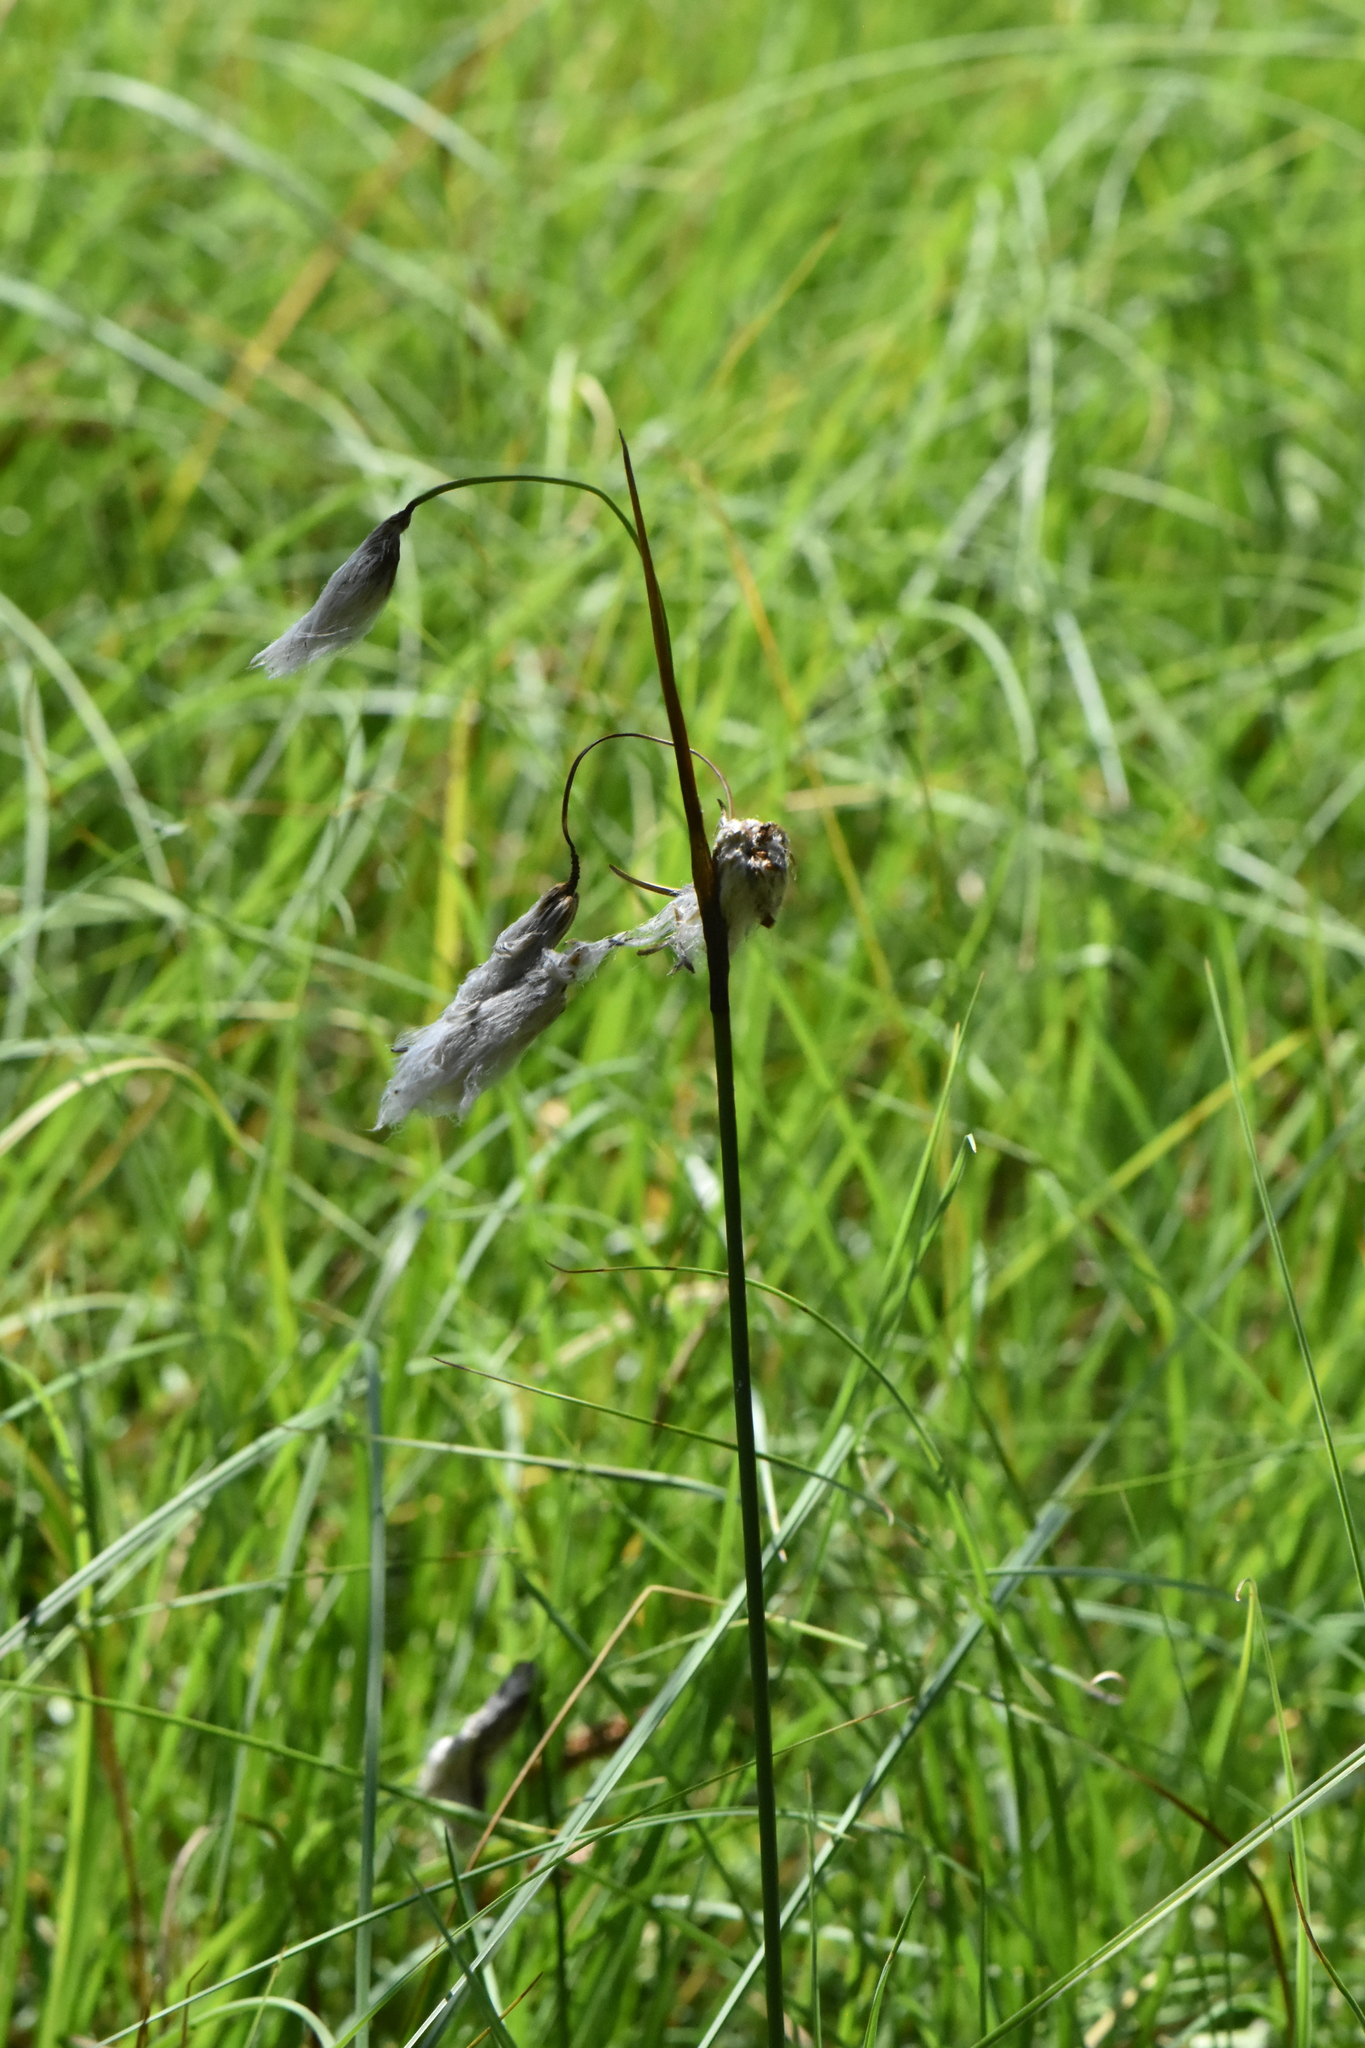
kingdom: Plantae
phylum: Tracheophyta
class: Liliopsida
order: Poales
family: Cyperaceae
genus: Eriophorum
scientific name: Eriophorum angustifolium
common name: Common cottongrass
